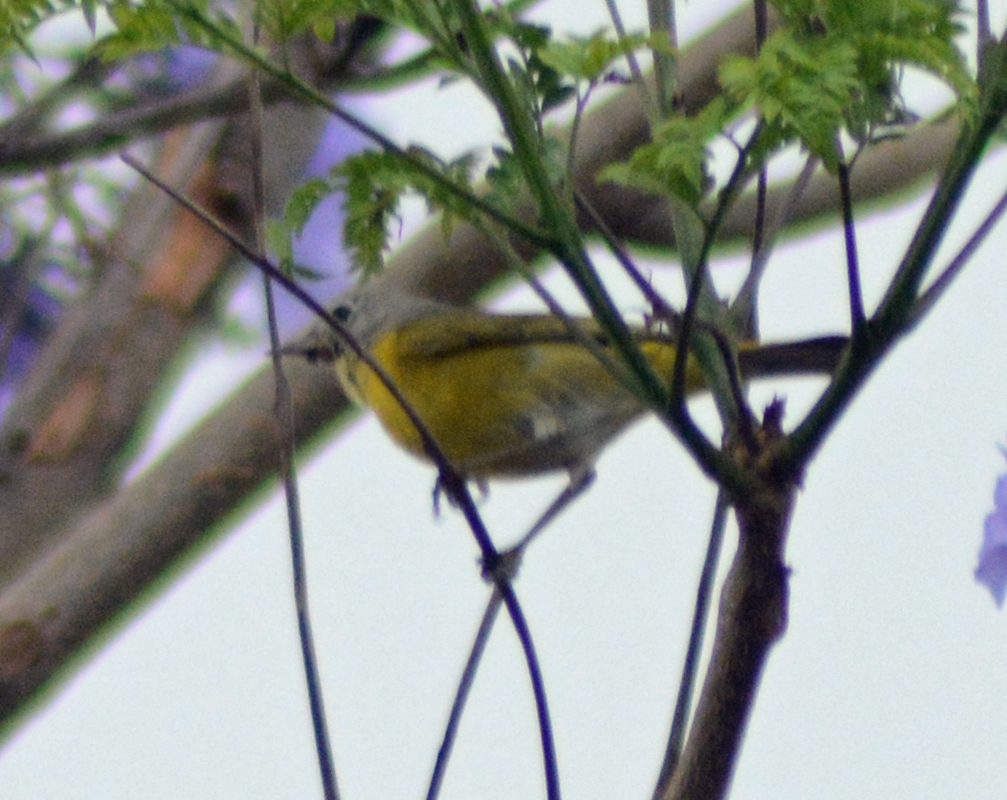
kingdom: Animalia
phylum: Chordata
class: Aves
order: Passeriformes
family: Parulidae
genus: Leiothlypis
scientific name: Leiothlypis ruficapilla
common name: Nashville warbler
